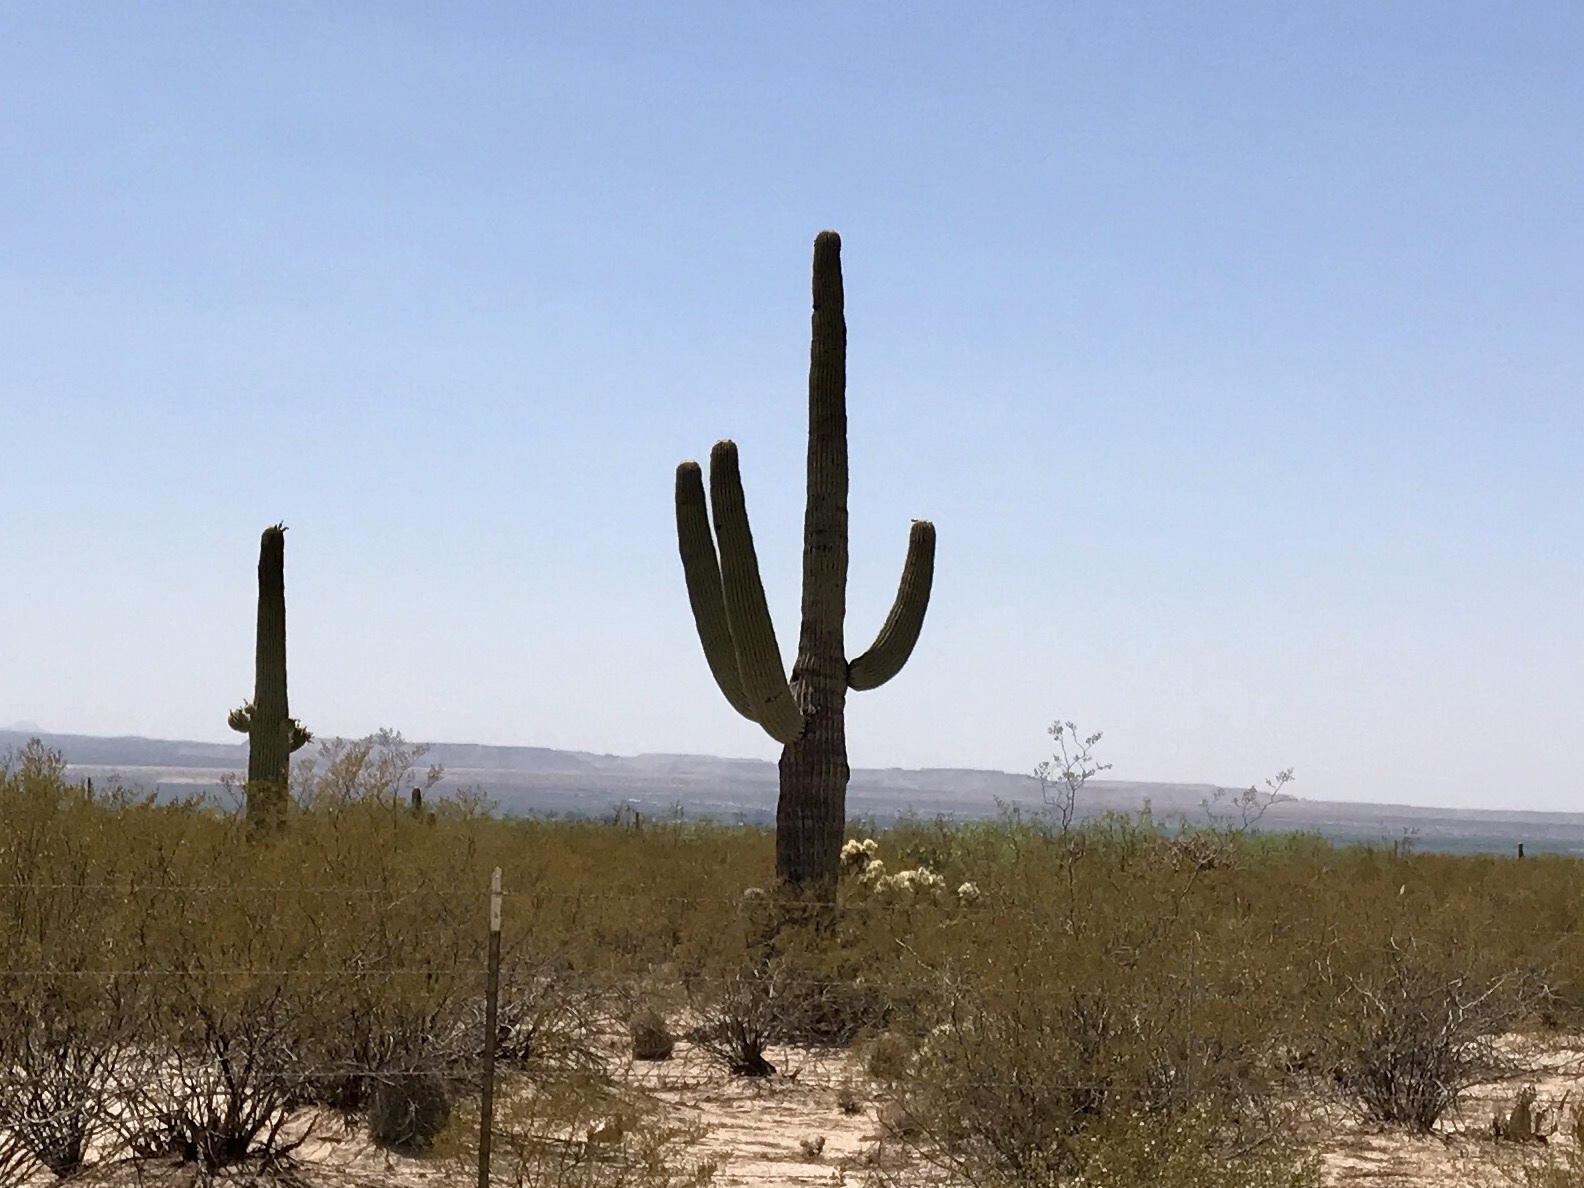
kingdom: Plantae
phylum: Tracheophyta
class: Magnoliopsida
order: Caryophyllales
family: Cactaceae
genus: Carnegiea
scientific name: Carnegiea gigantea
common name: Saguaro
